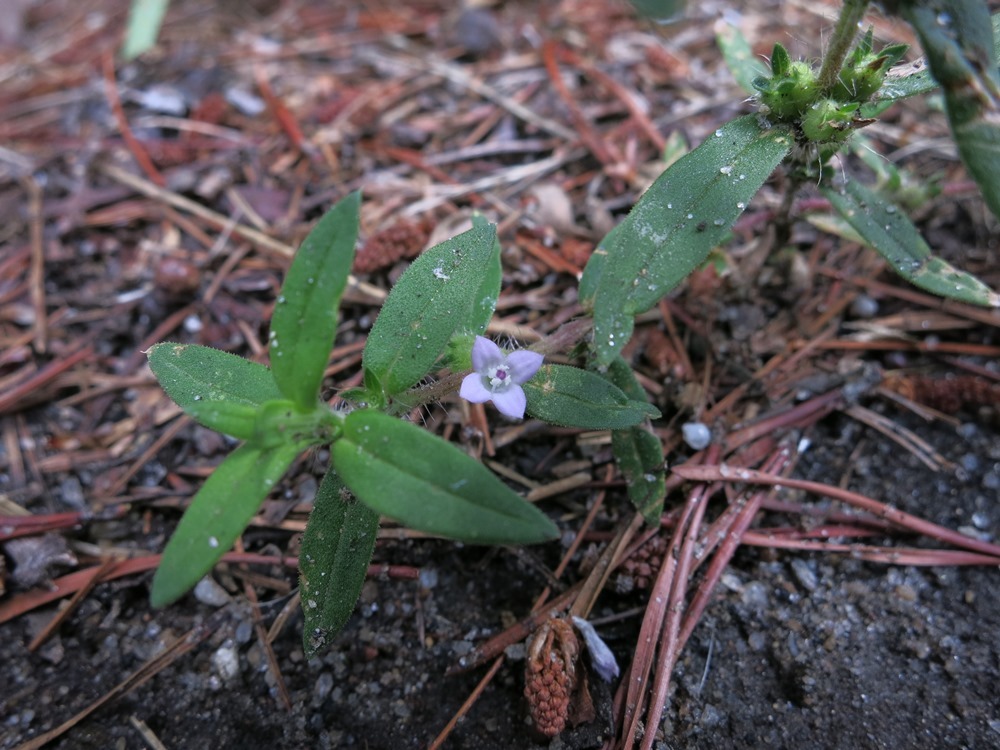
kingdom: Plantae
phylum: Tracheophyta
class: Magnoliopsida
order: Gentianales
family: Rubiaceae
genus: Hexasepalum
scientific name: Hexasepalum teres
